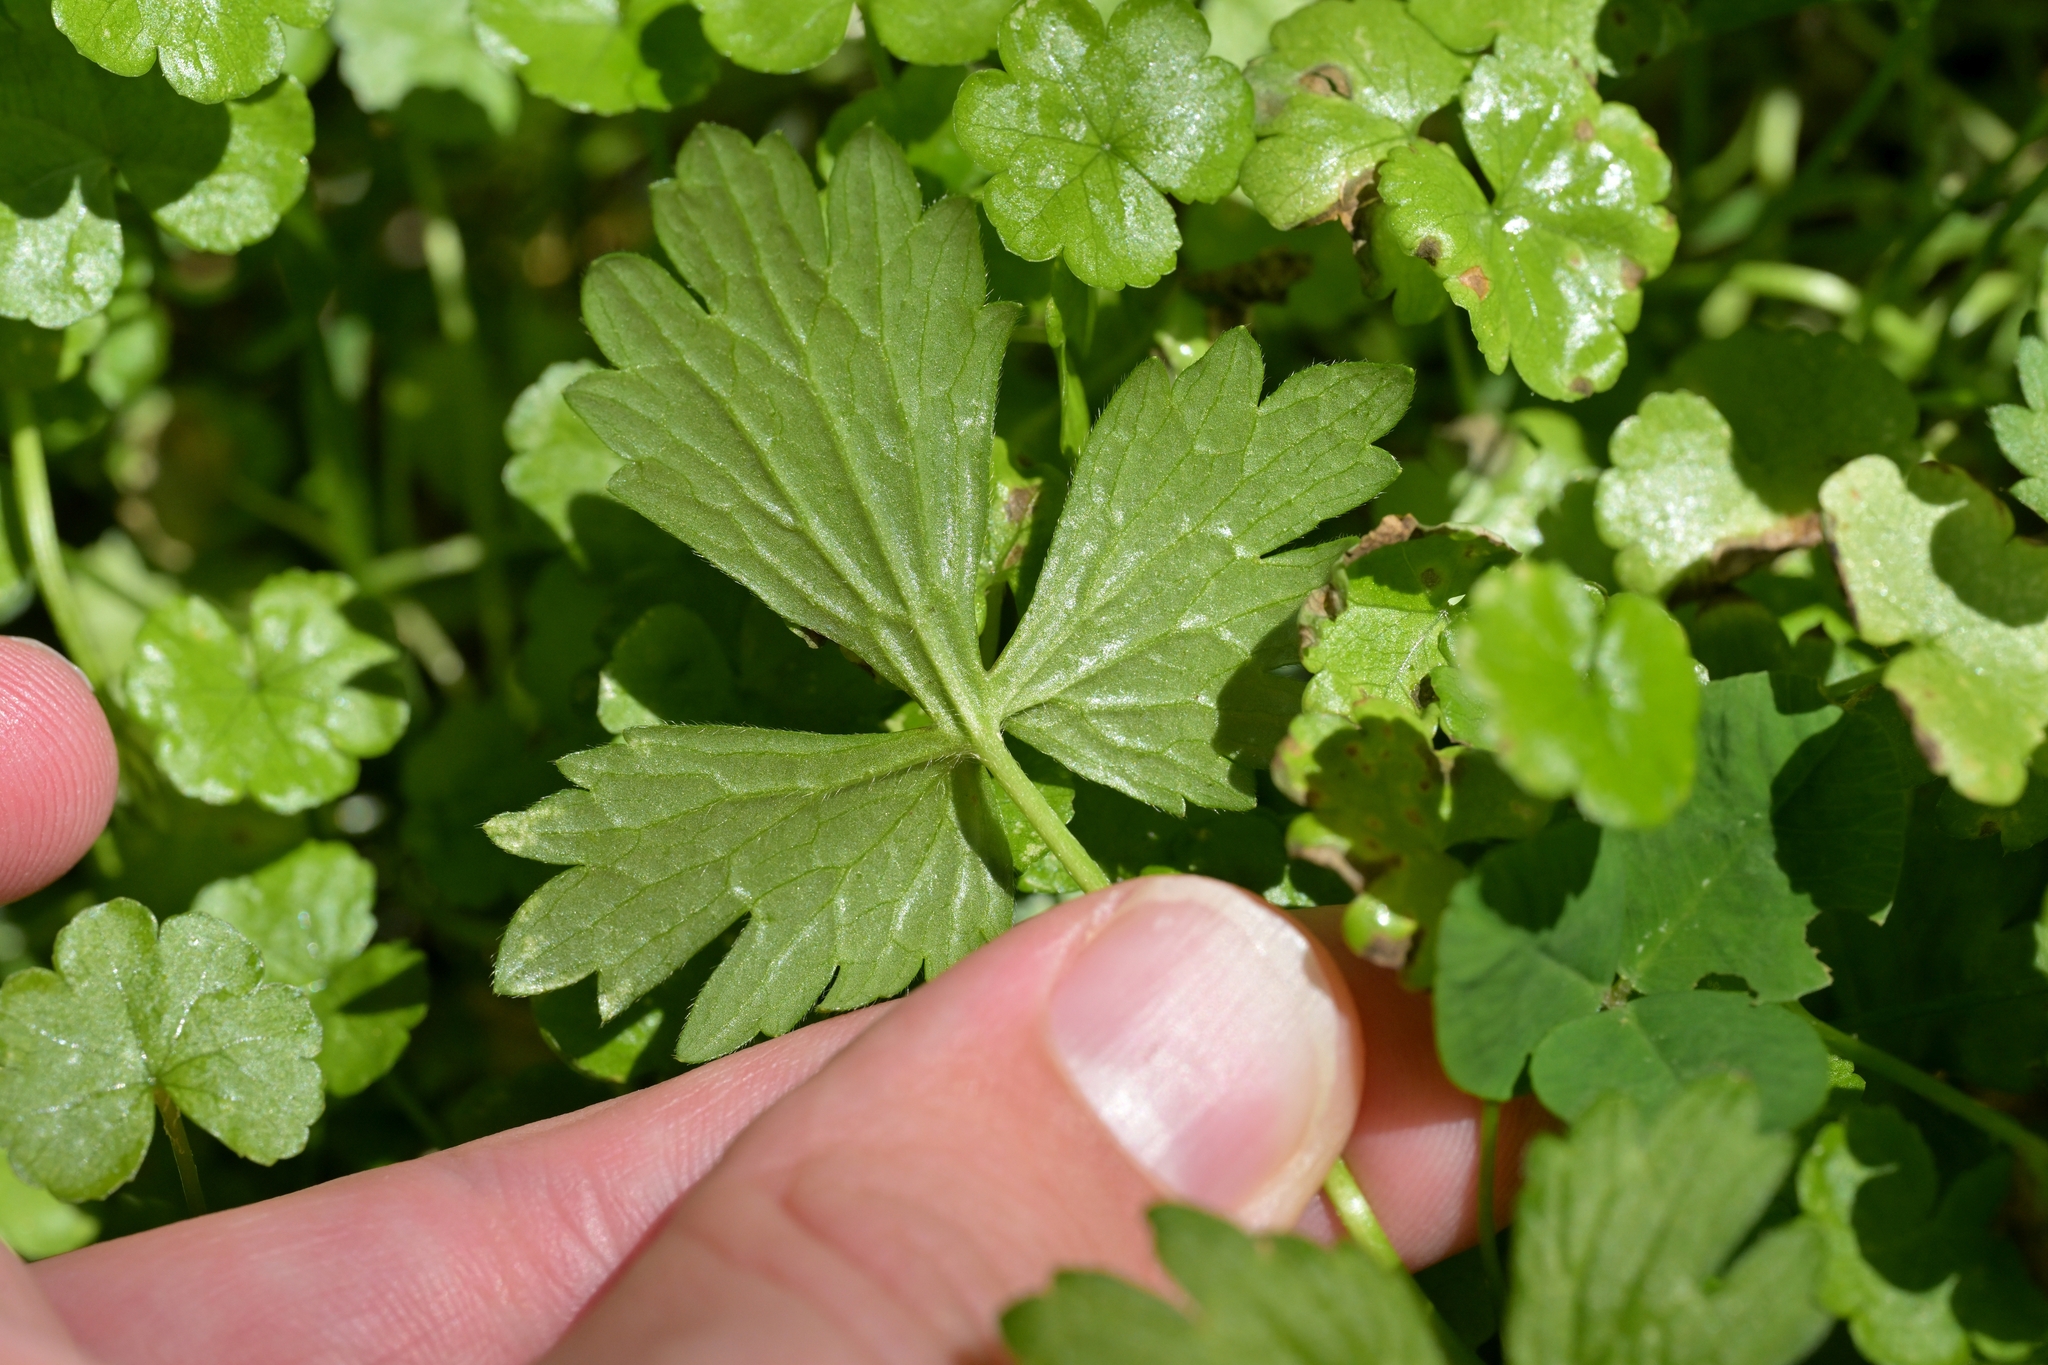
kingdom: Plantae
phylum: Tracheophyta
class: Magnoliopsida
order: Ranunculales
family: Ranunculaceae
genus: Ranunculus
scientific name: Ranunculus repens
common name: Creeping buttercup
